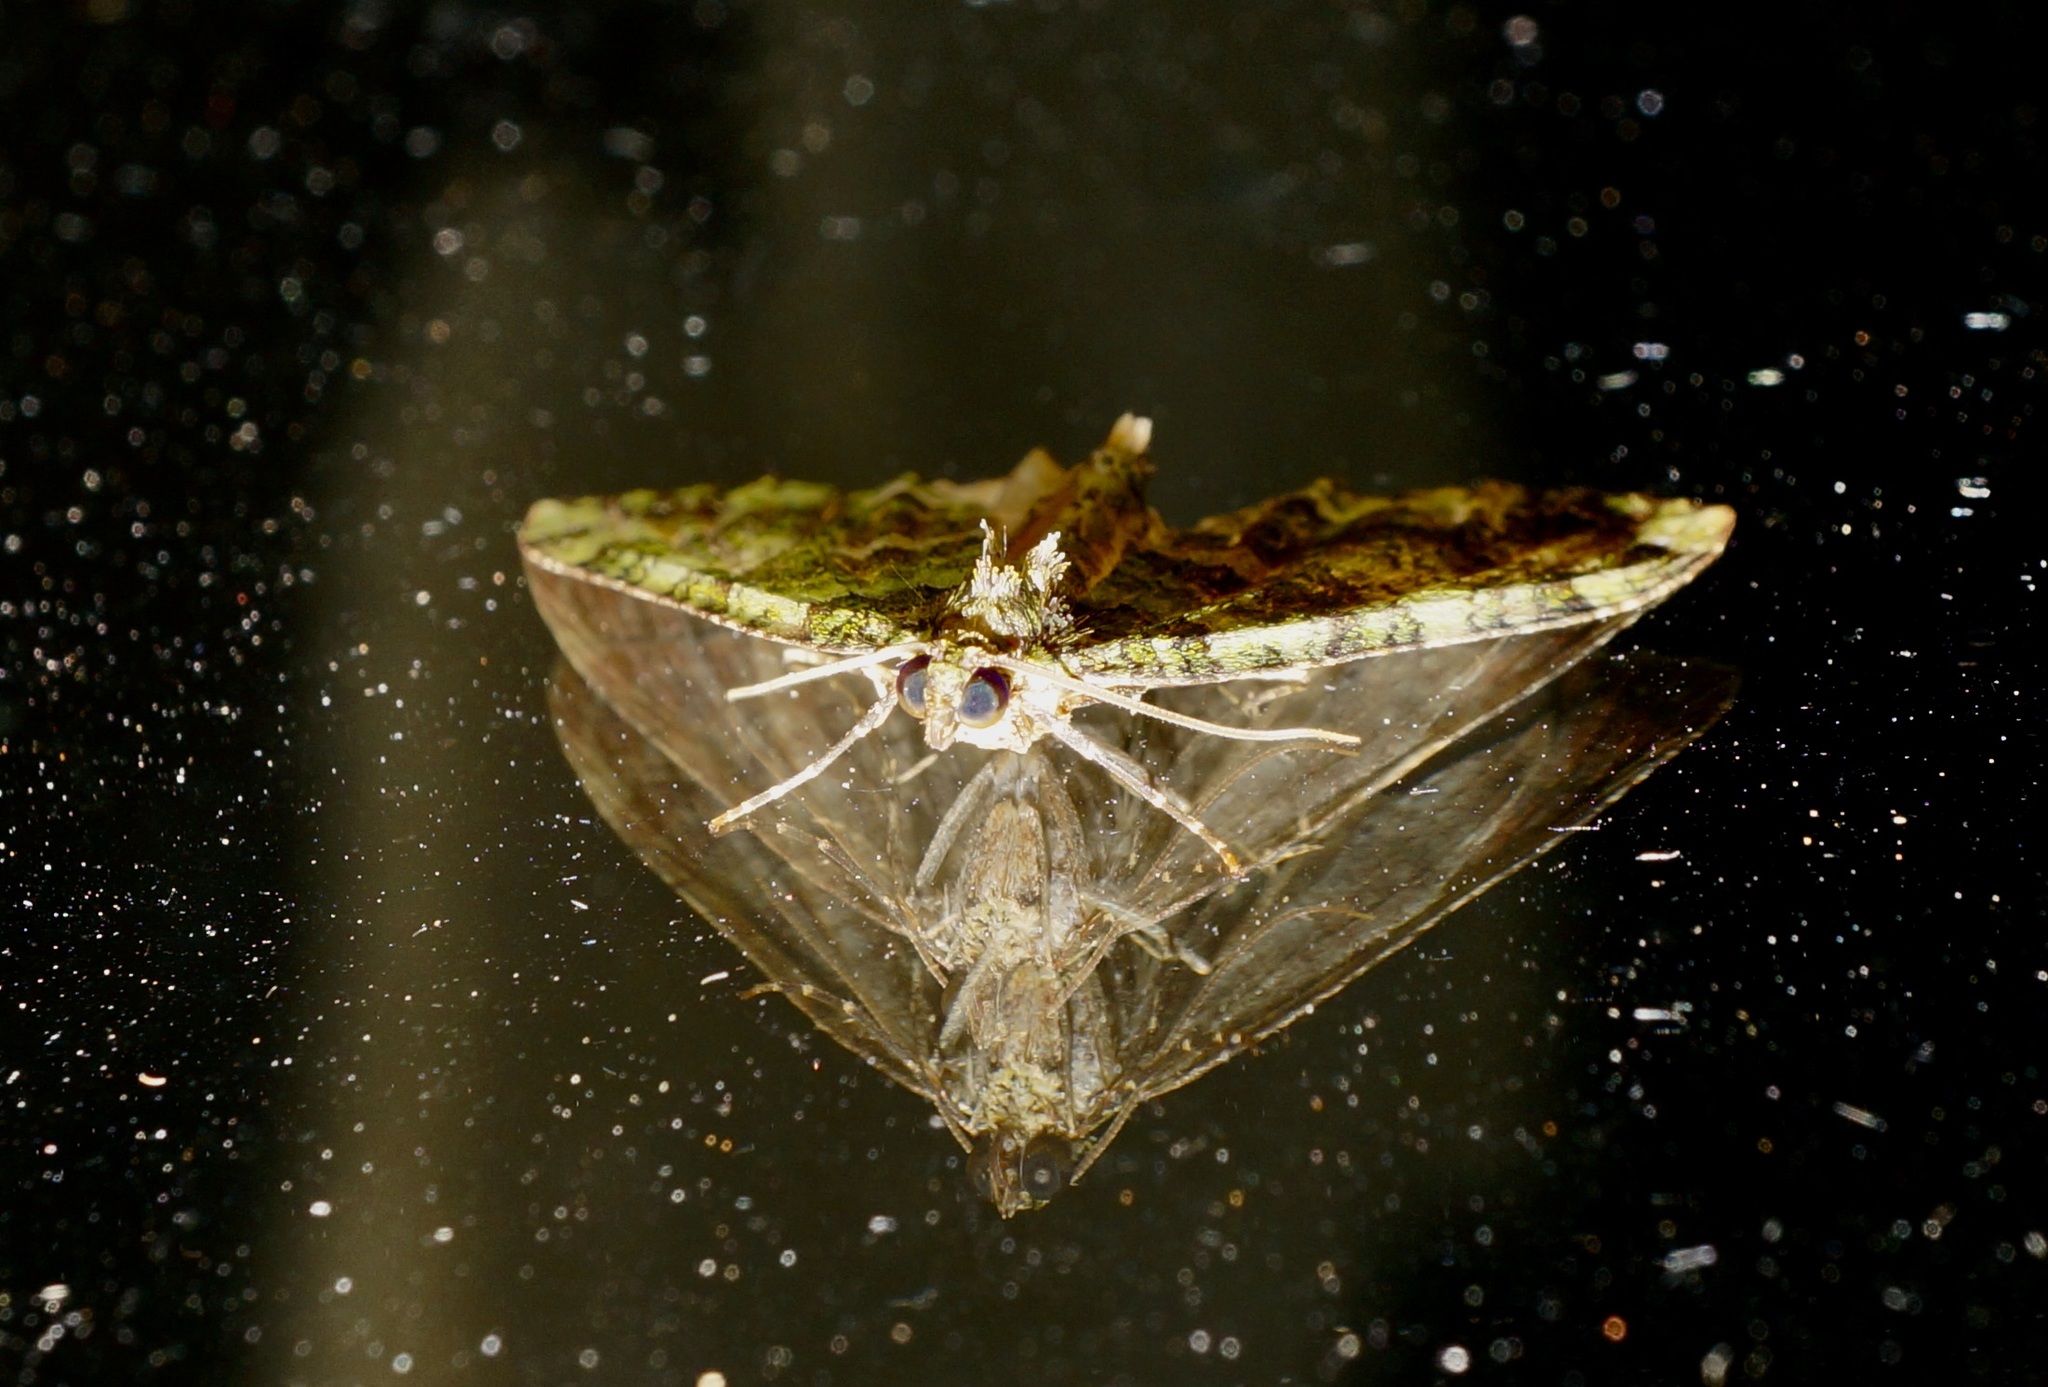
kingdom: Animalia
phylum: Arthropoda
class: Insecta
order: Lepidoptera
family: Geometridae
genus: Austrocidaria
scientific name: Austrocidaria similata
